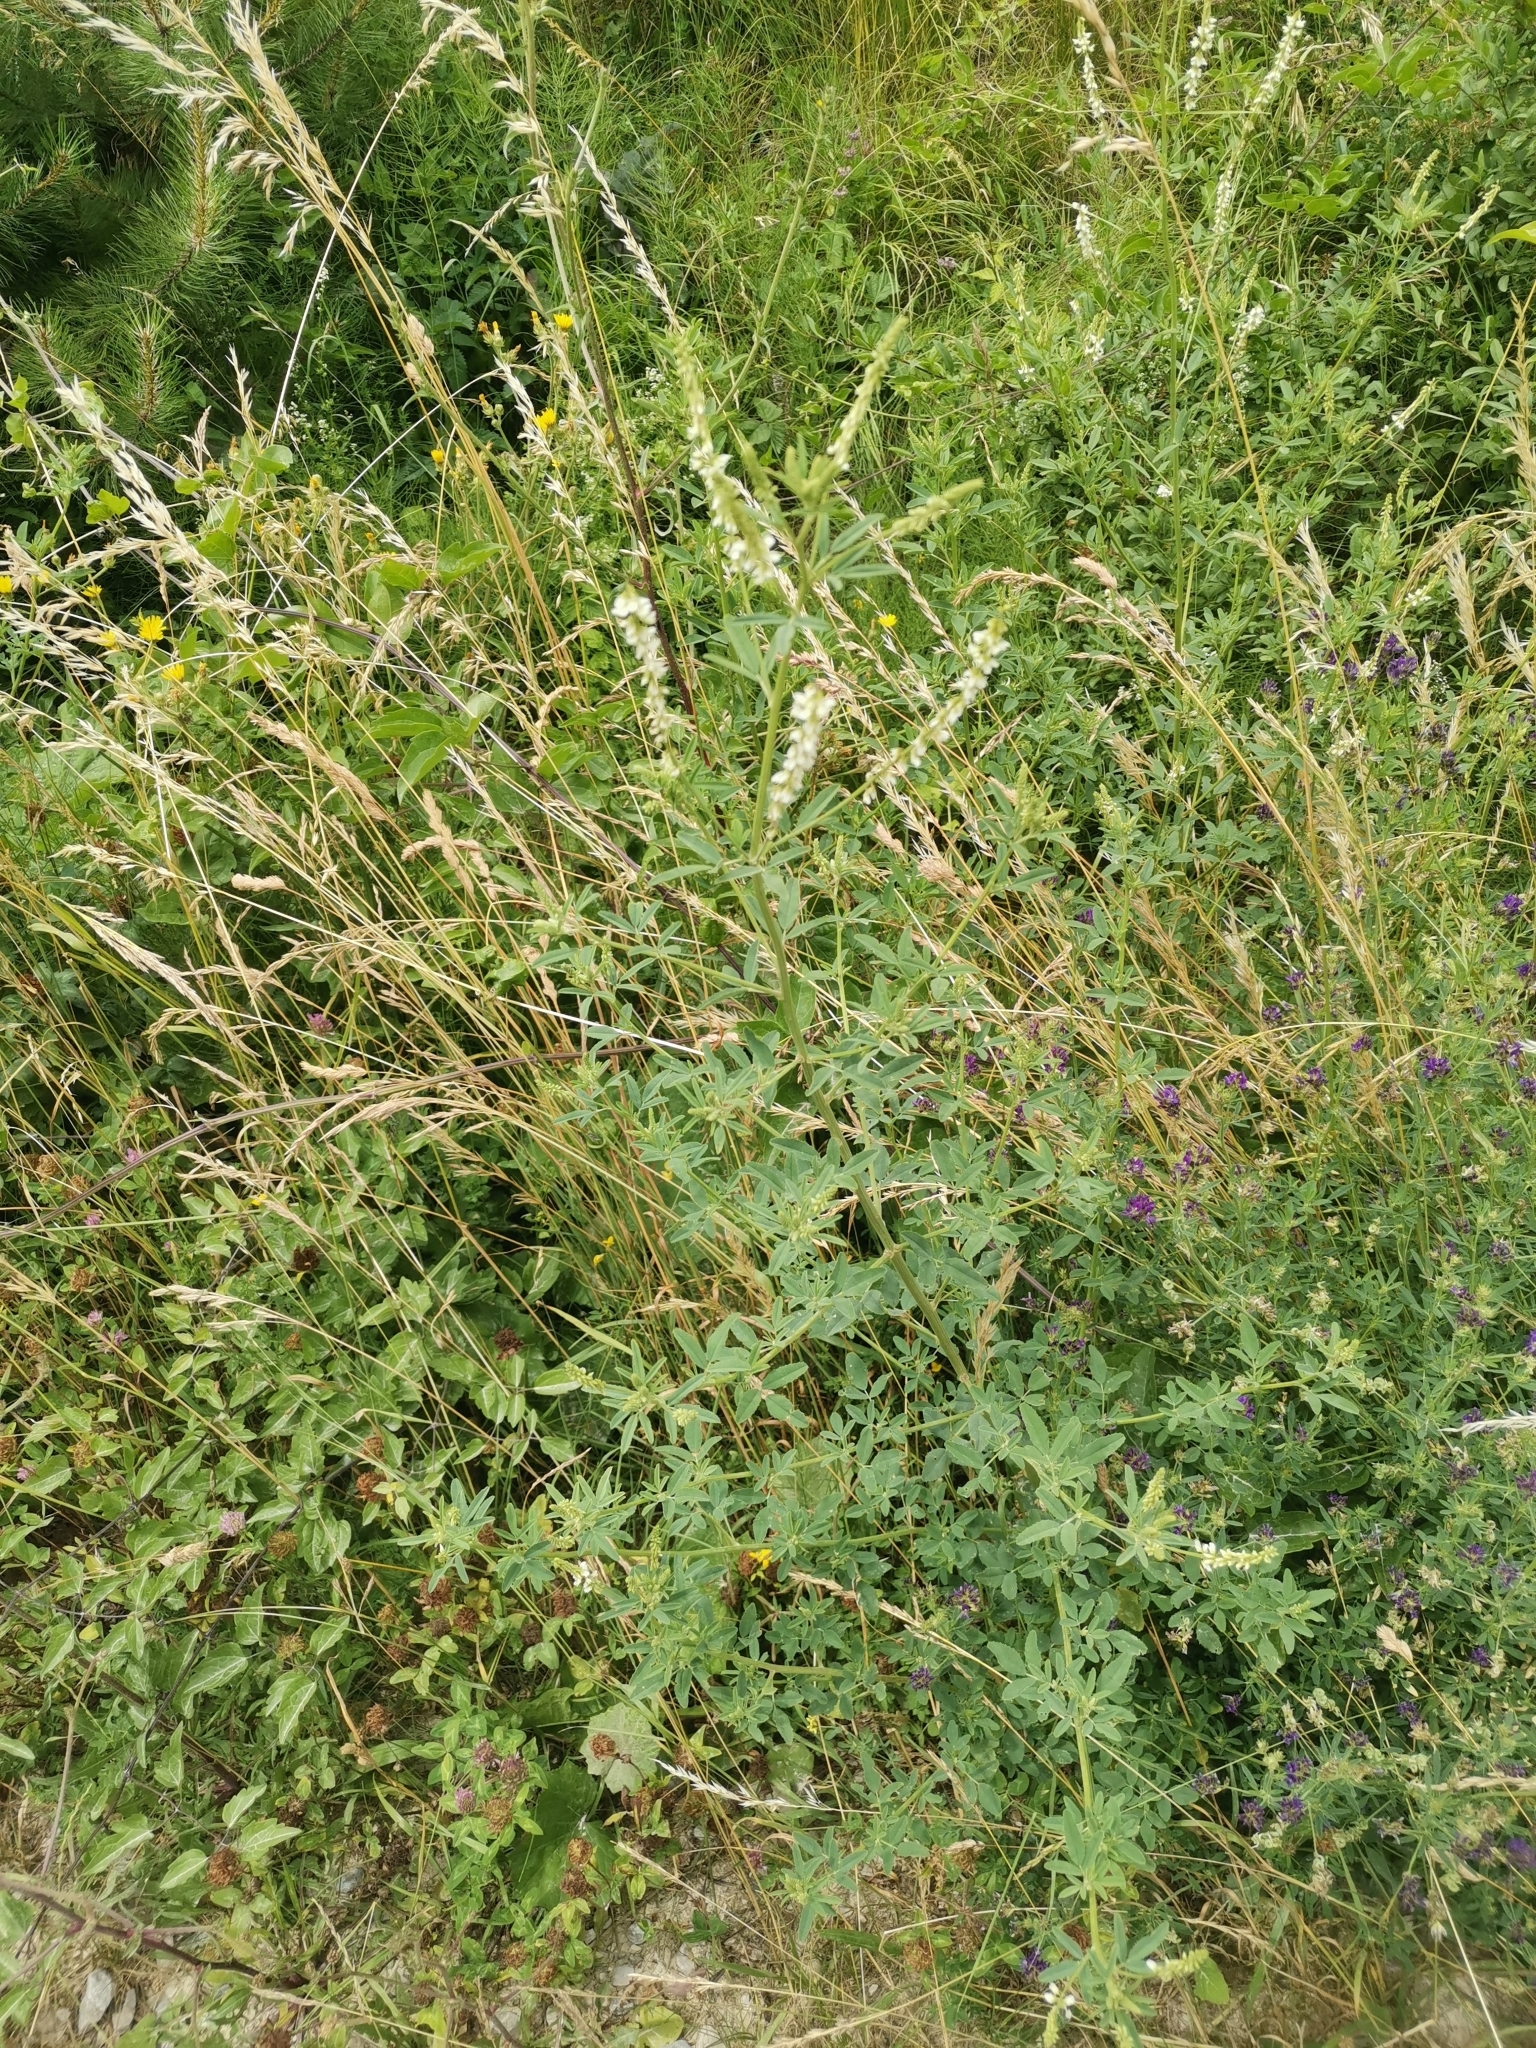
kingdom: Plantae
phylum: Tracheophyta
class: Magnoliopsida
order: Fabales
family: Fabaceae
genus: Melilotus
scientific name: Melilotus albus
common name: White melilot
